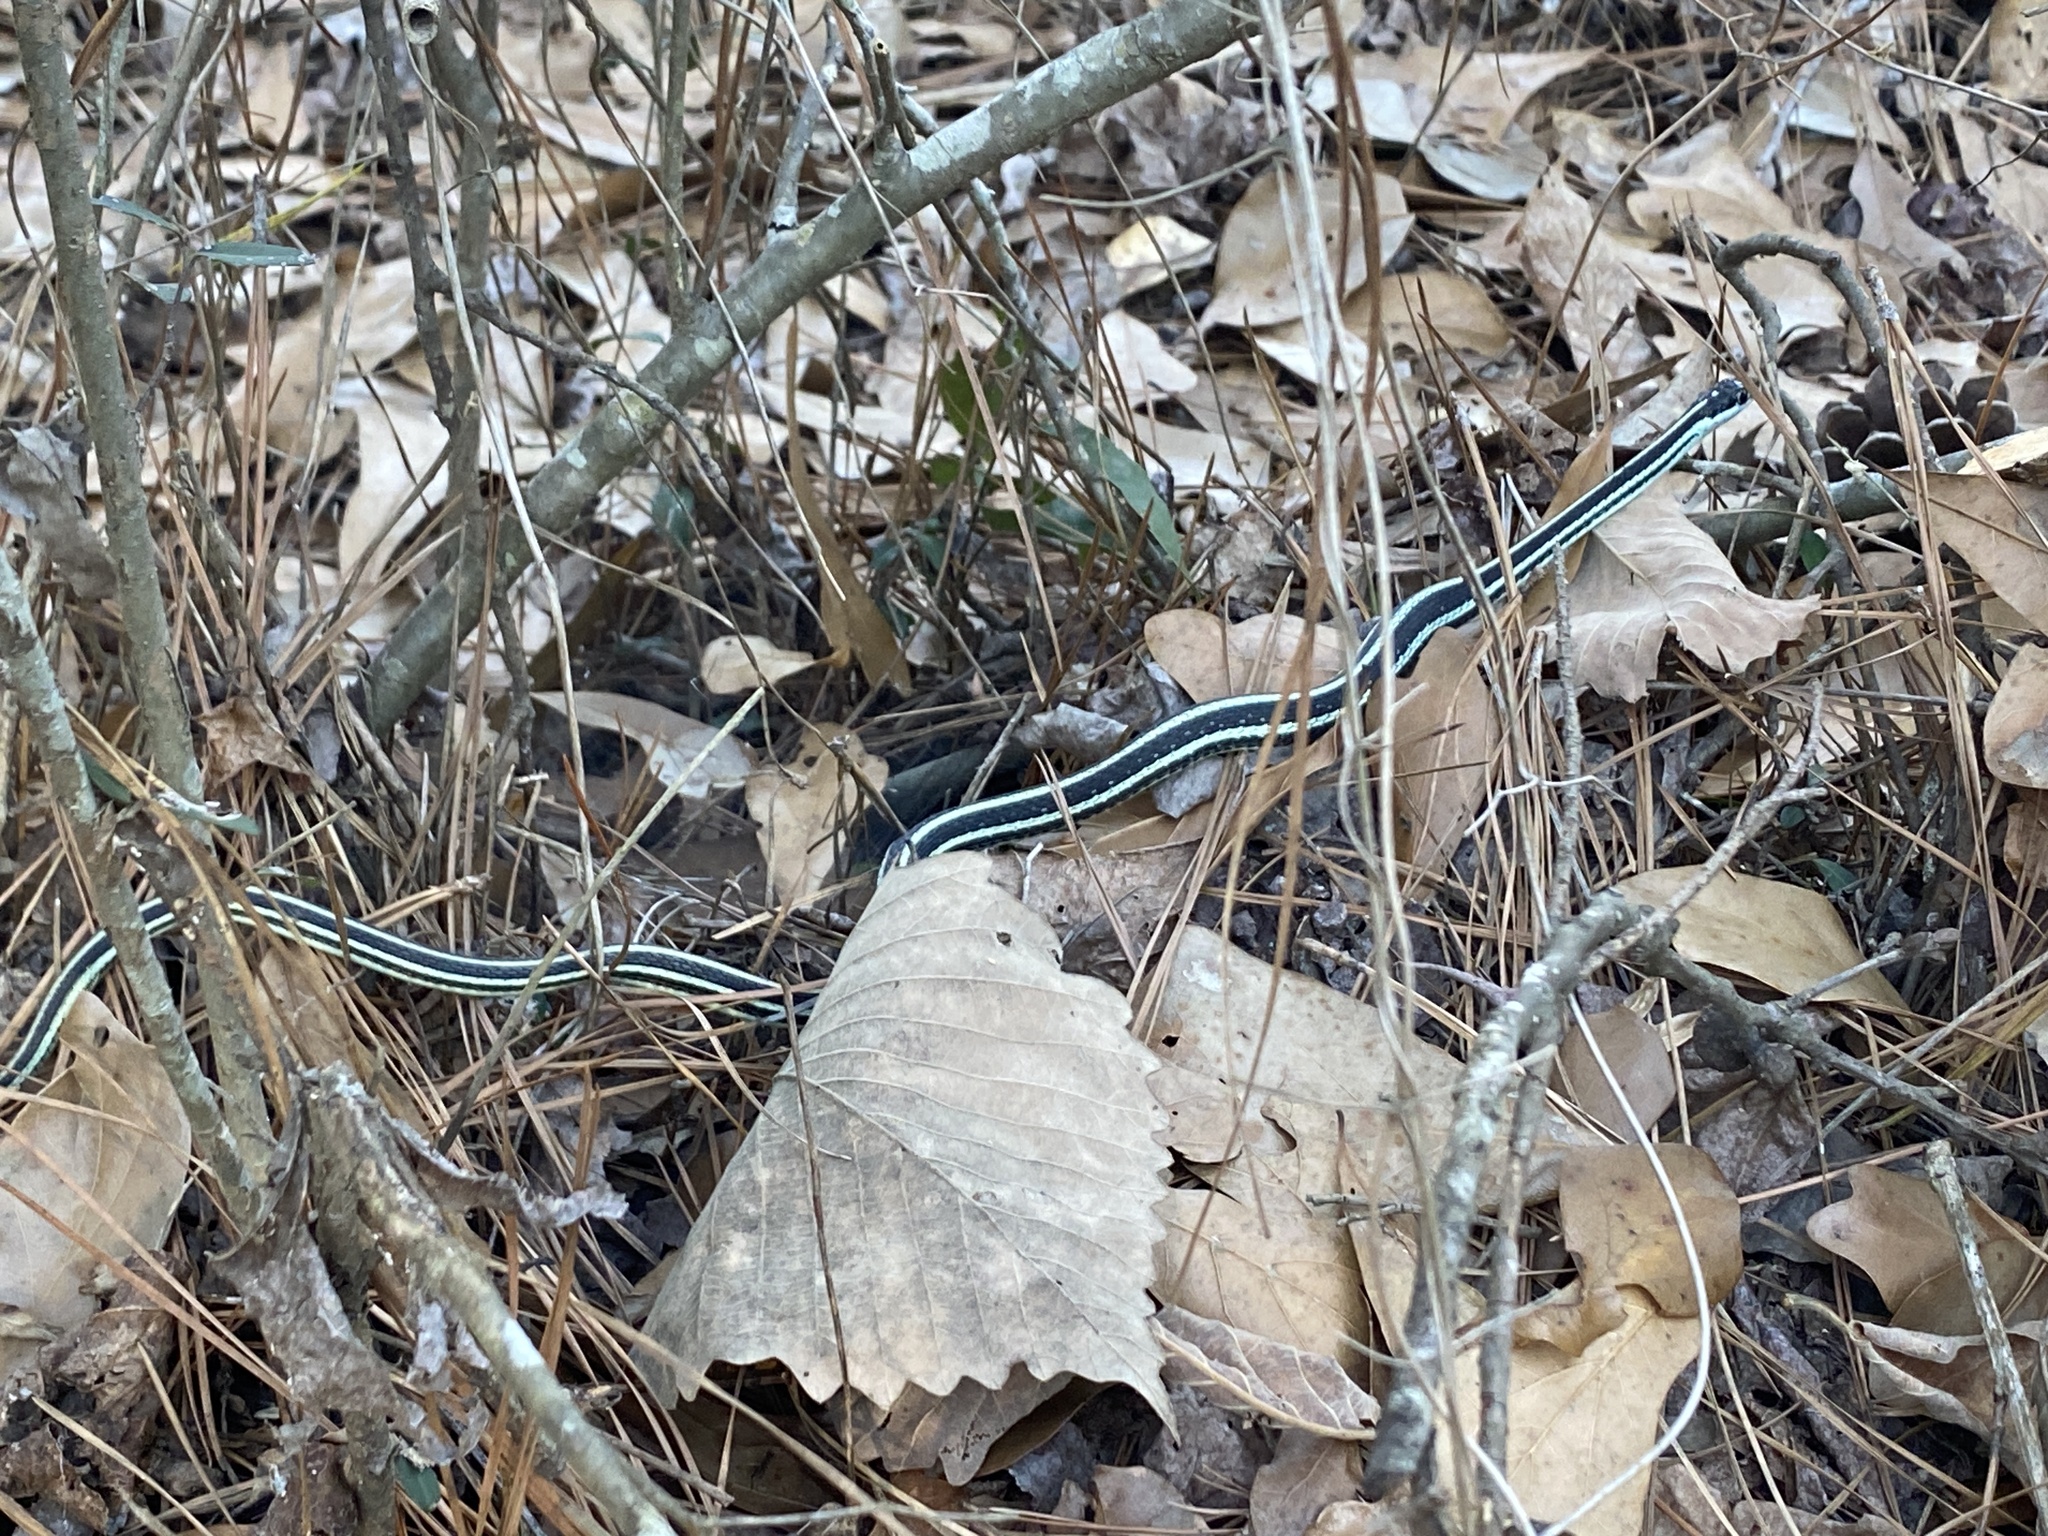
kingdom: Animalia
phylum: Chordata
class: Squamata
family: Colubridae
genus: Thamnophis
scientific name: Thamnophis proximus
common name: Western ribbon snake
